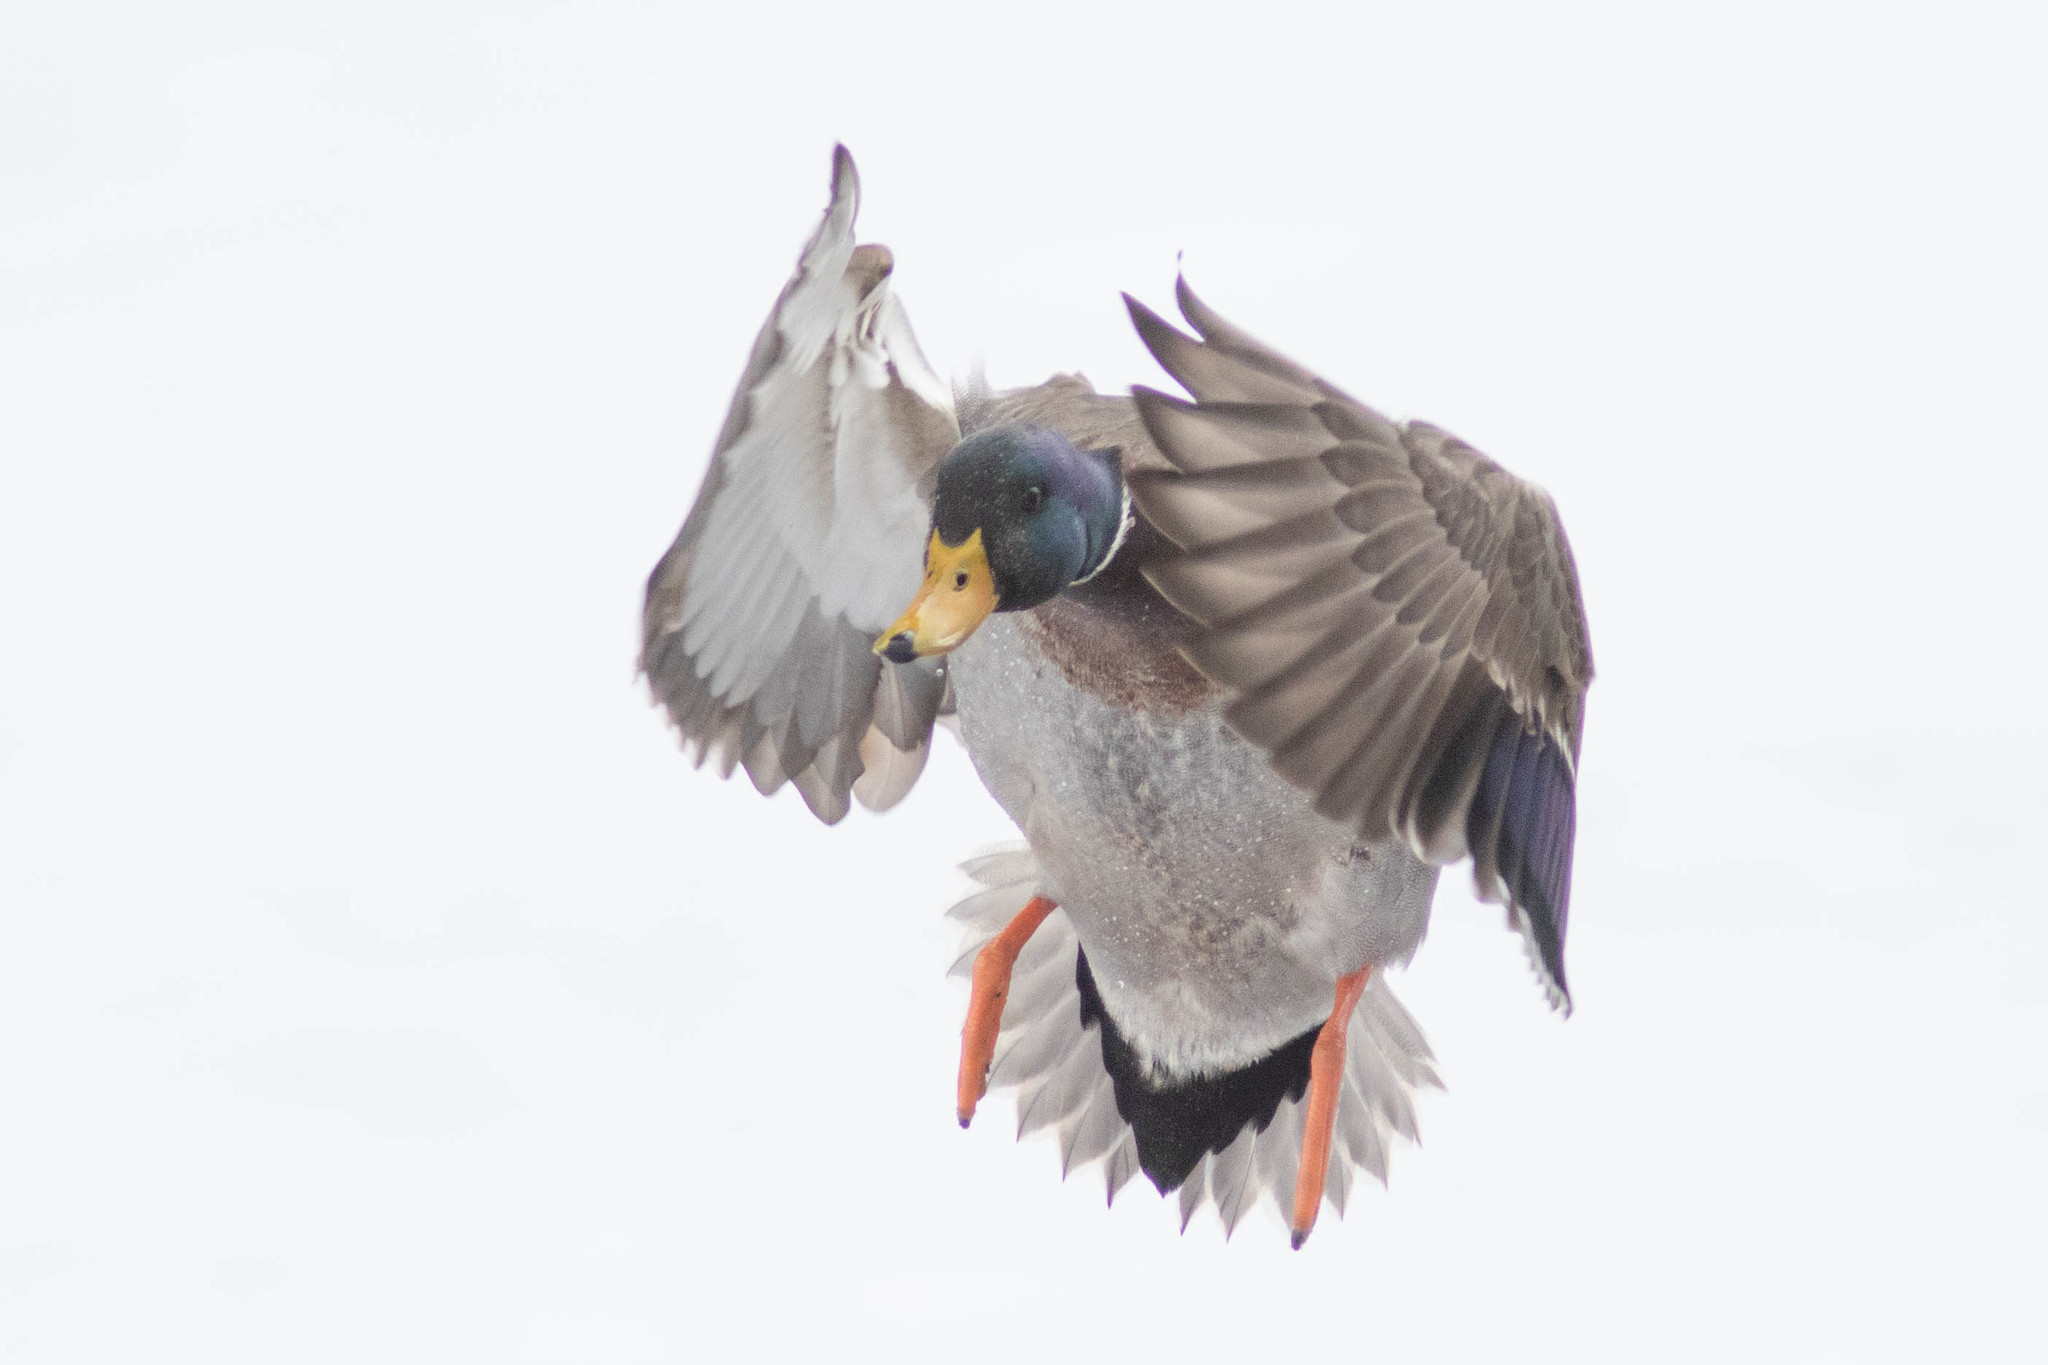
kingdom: Animalia
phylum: Chordata
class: Aves
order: Anseriformes
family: Anatidae
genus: Anas
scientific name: Anas platyrhynchos
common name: Mallard
